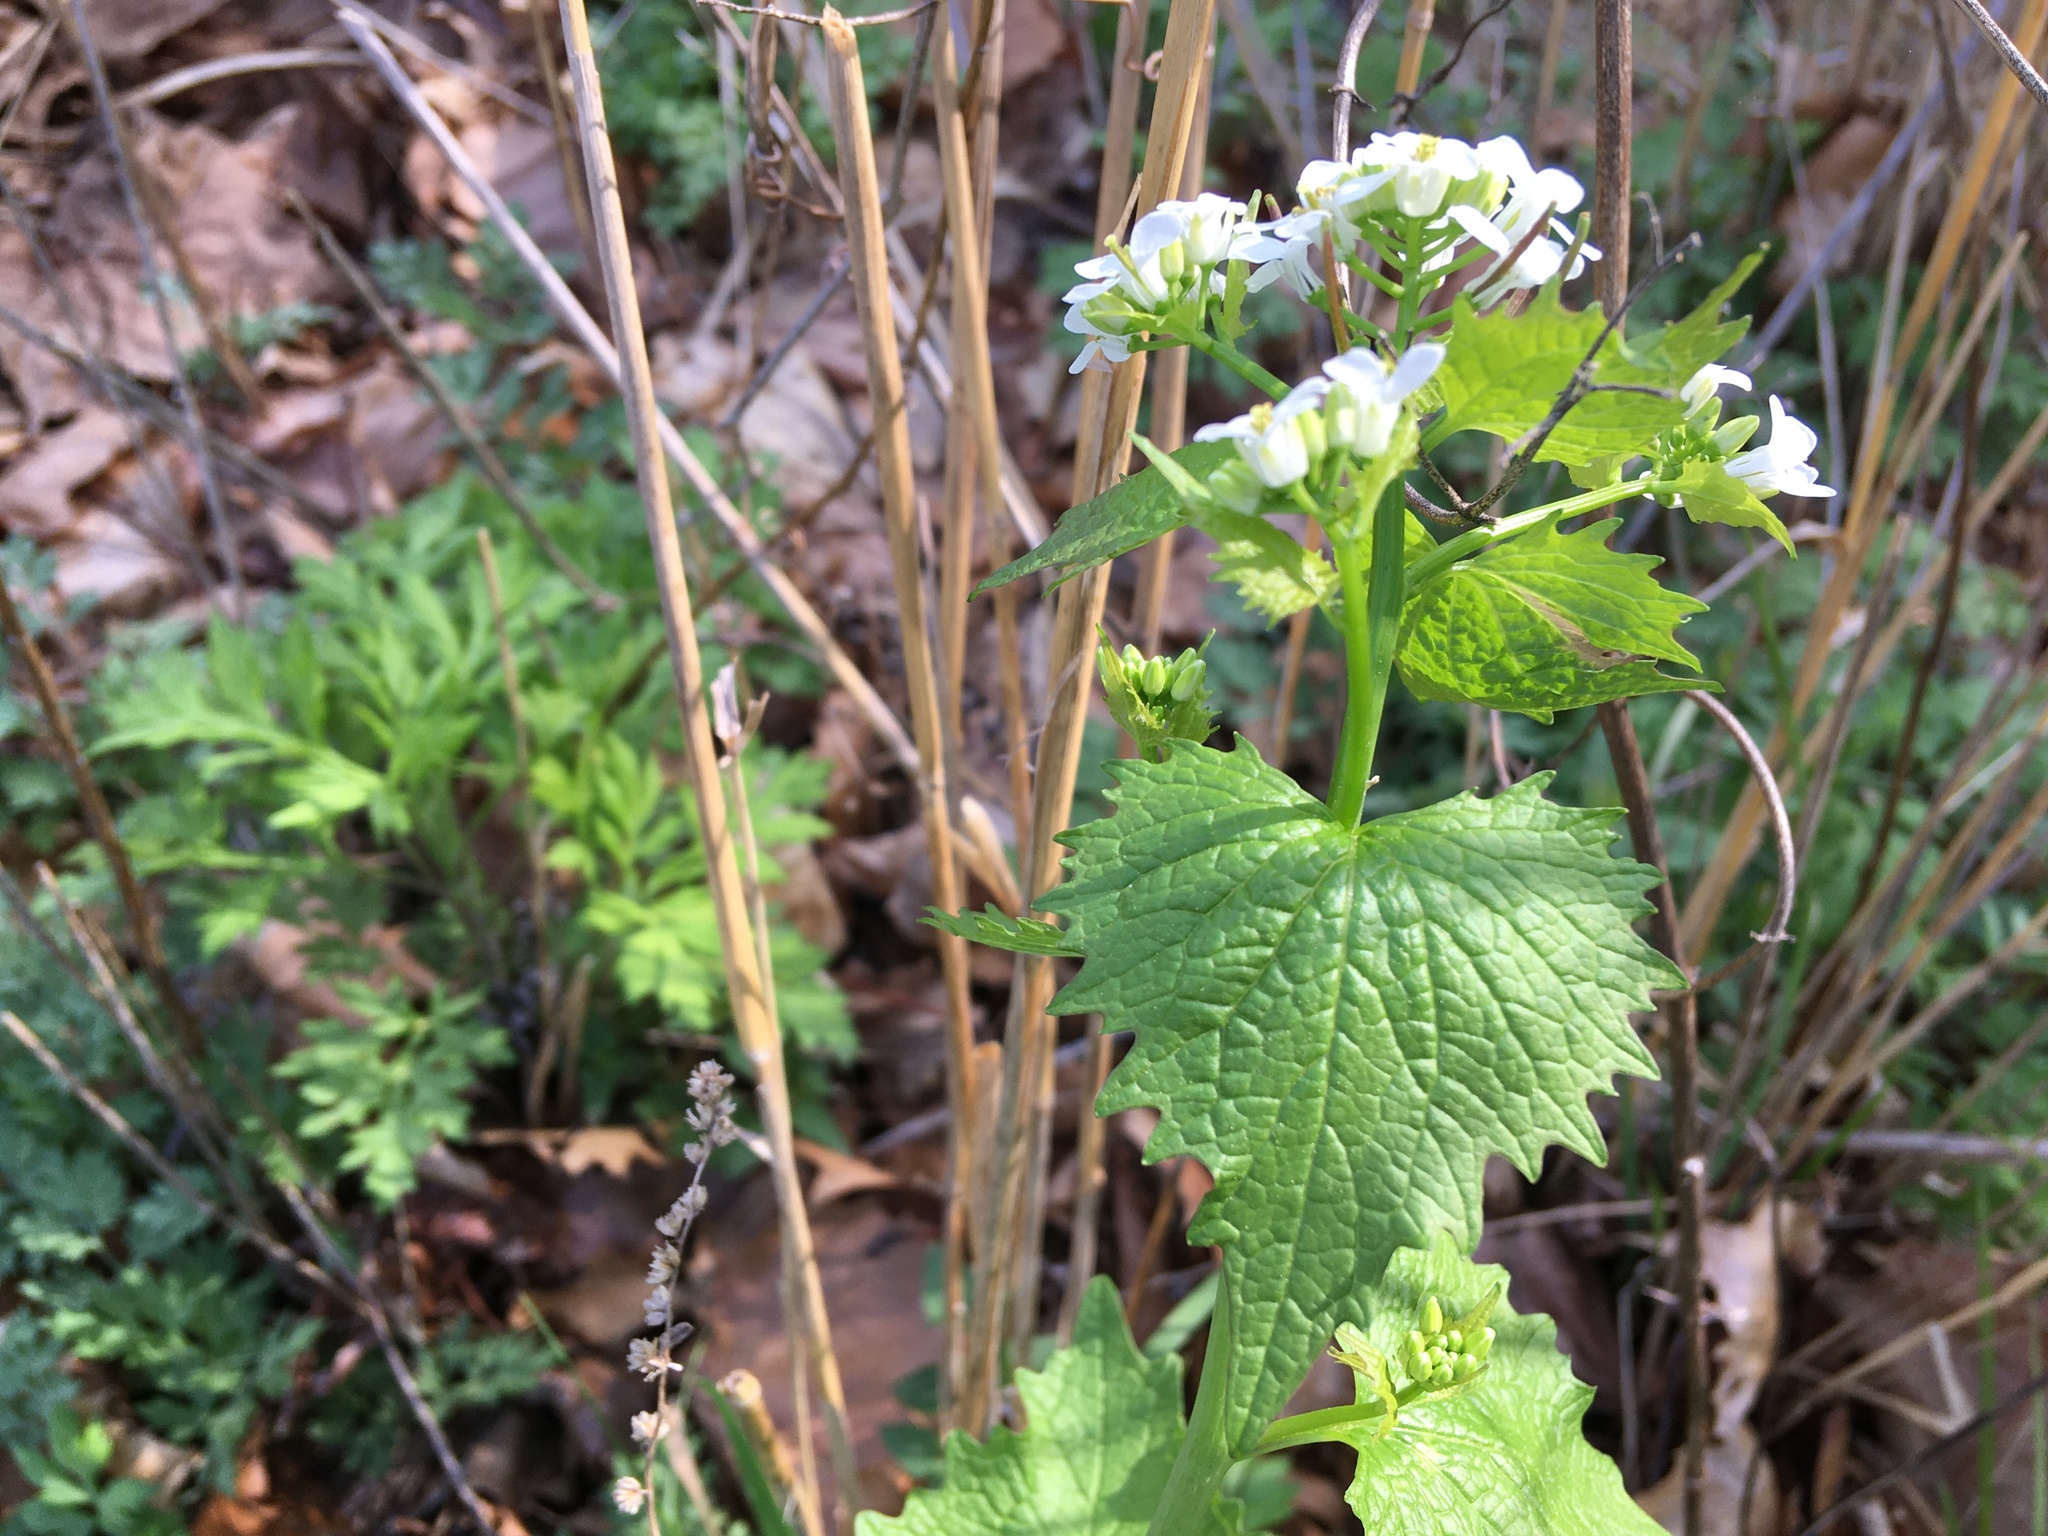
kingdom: Plantae
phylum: Tracheophyta
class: Magnoliopsida
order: Brassicales
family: Brassicaceae
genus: Alliaria
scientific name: Alliaria petiolata
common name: Garlic mustard
